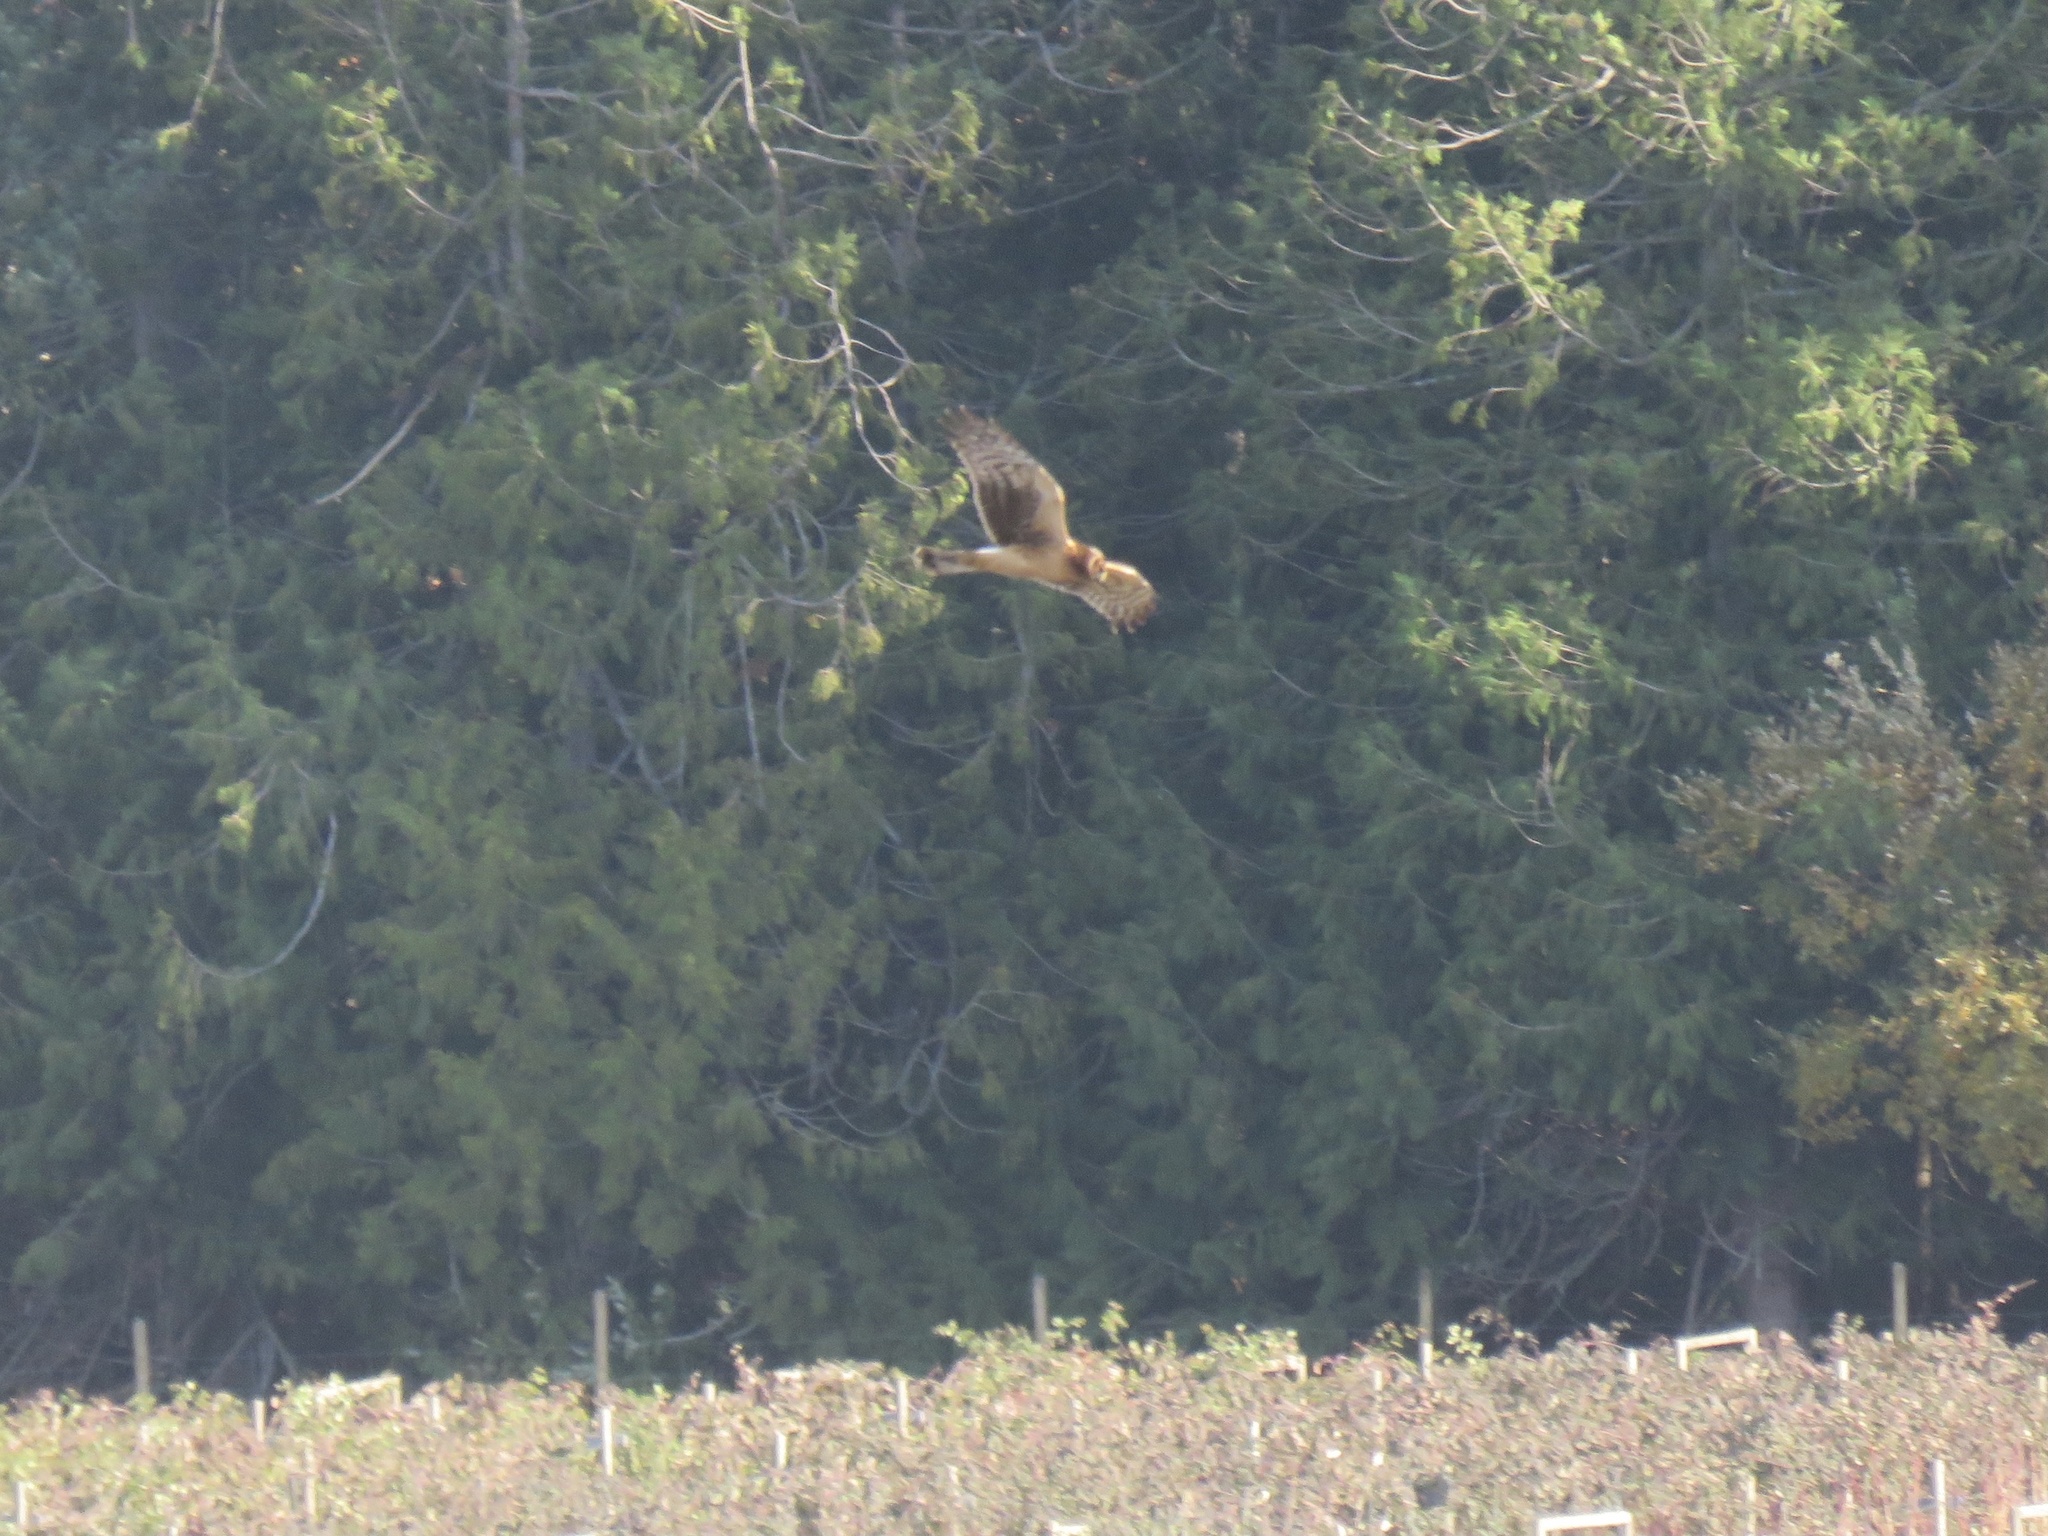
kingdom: Animalia
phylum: Chordata
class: Aves
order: Accipitriformes
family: Accipitridae
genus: Circus
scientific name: Circus cyaneus
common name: Hen harrier
